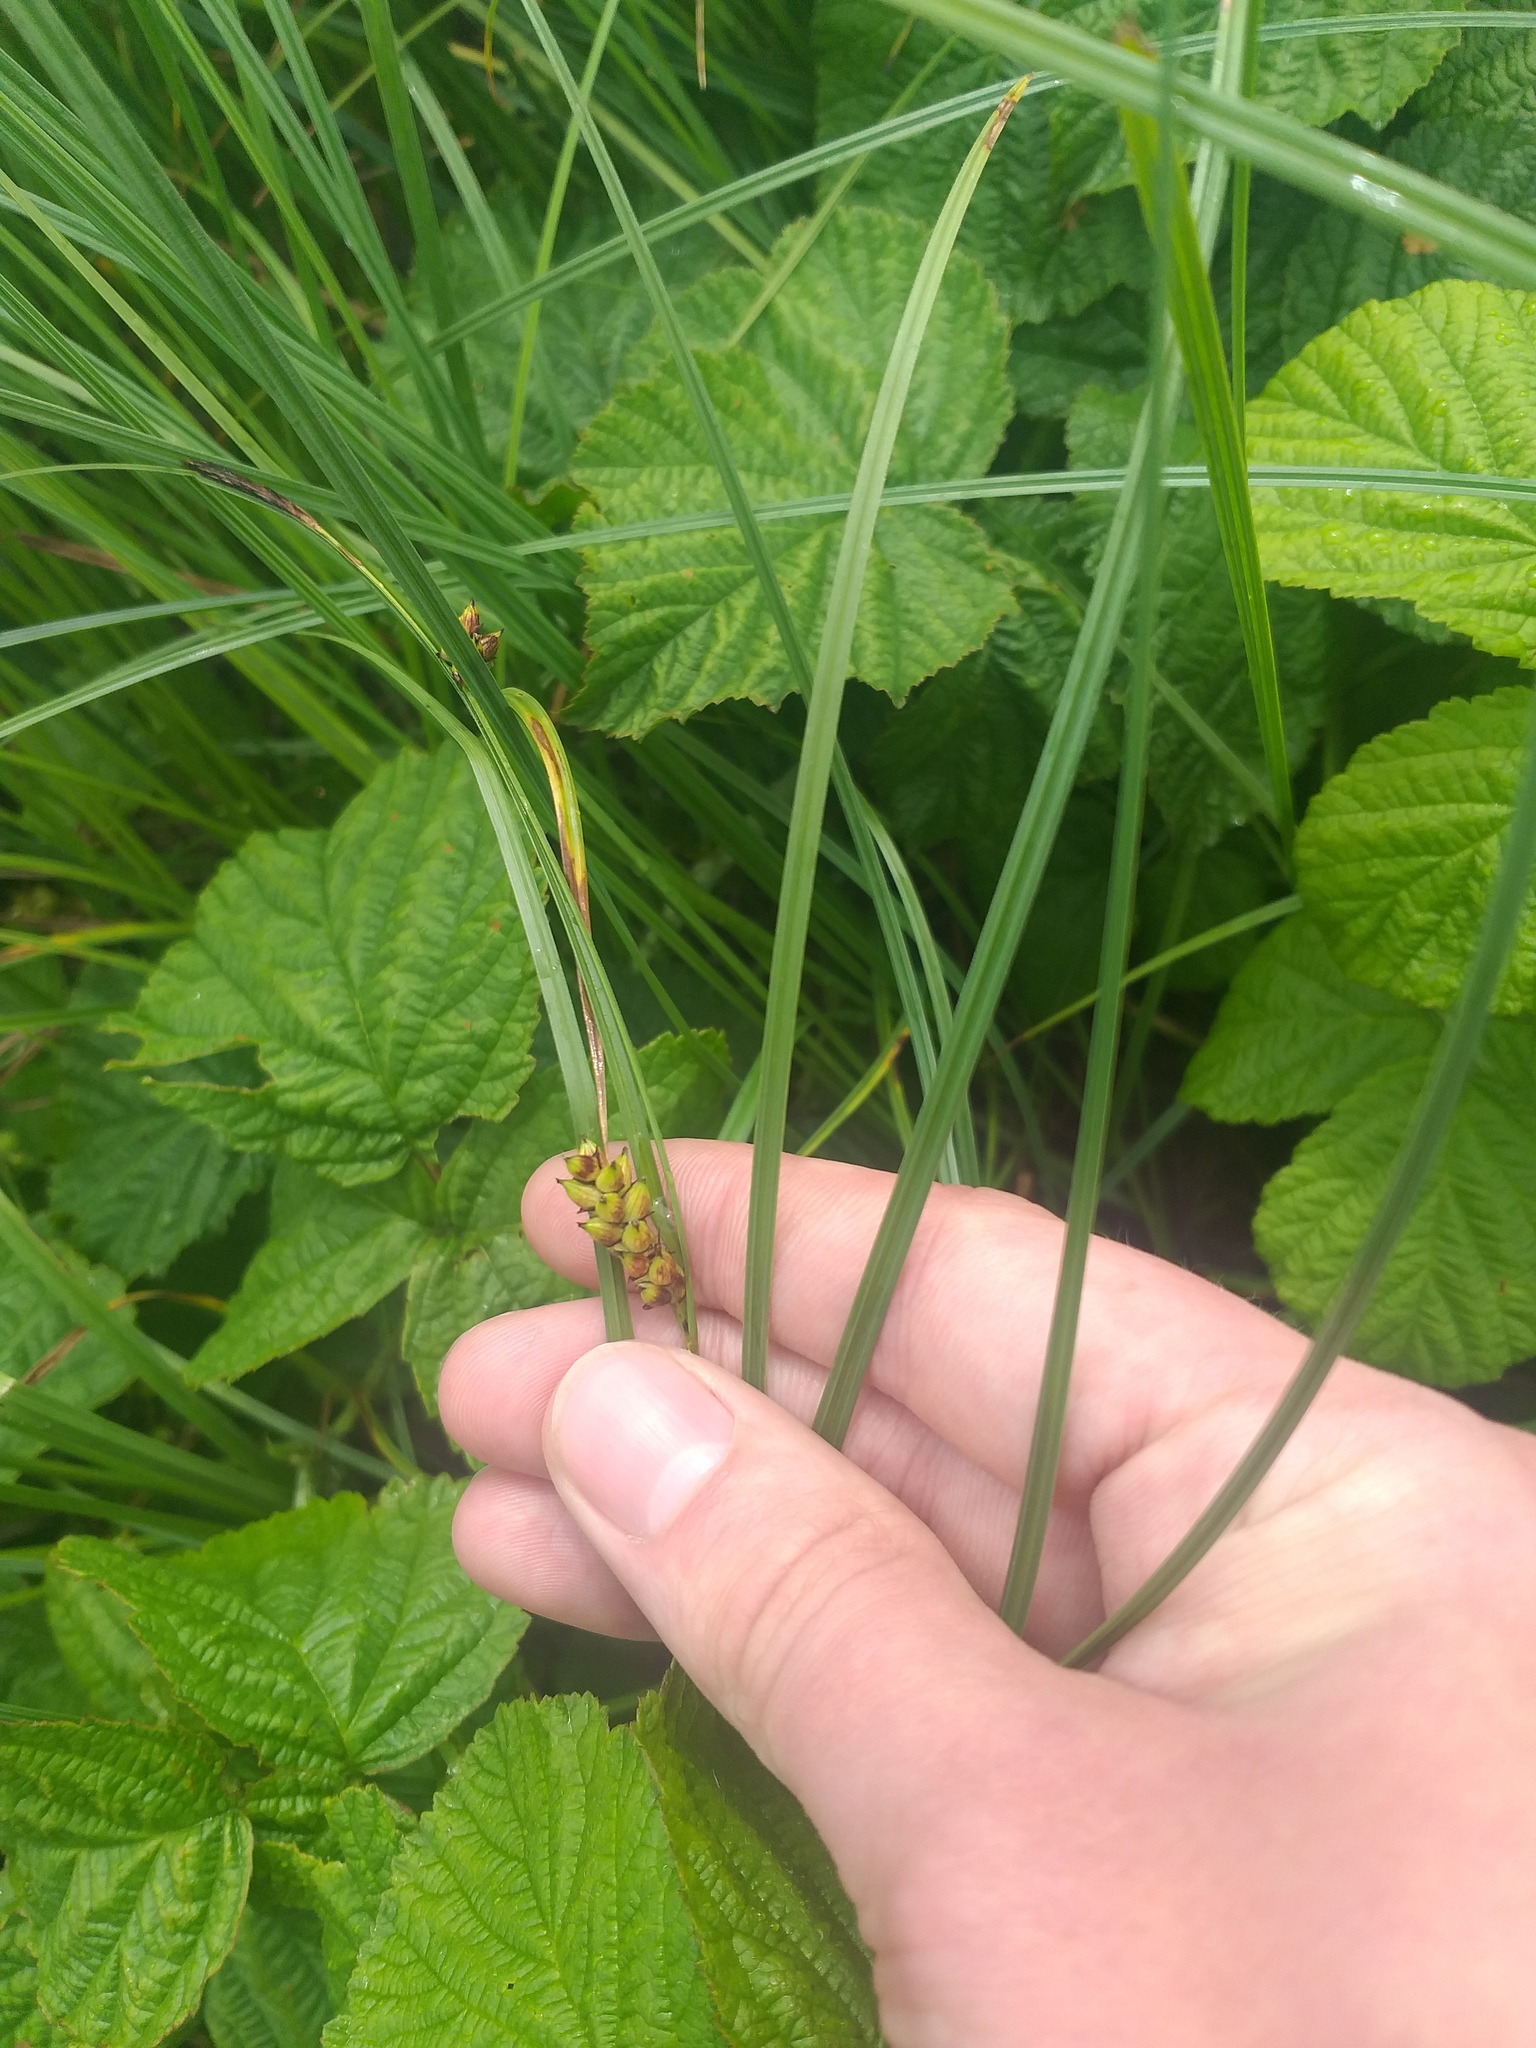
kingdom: Plantae
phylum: Tracheophyta
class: Liliopsida
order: Poales
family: Cyperaceae
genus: Carex
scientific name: Carex melanostachya
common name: Black-spiked sedge
